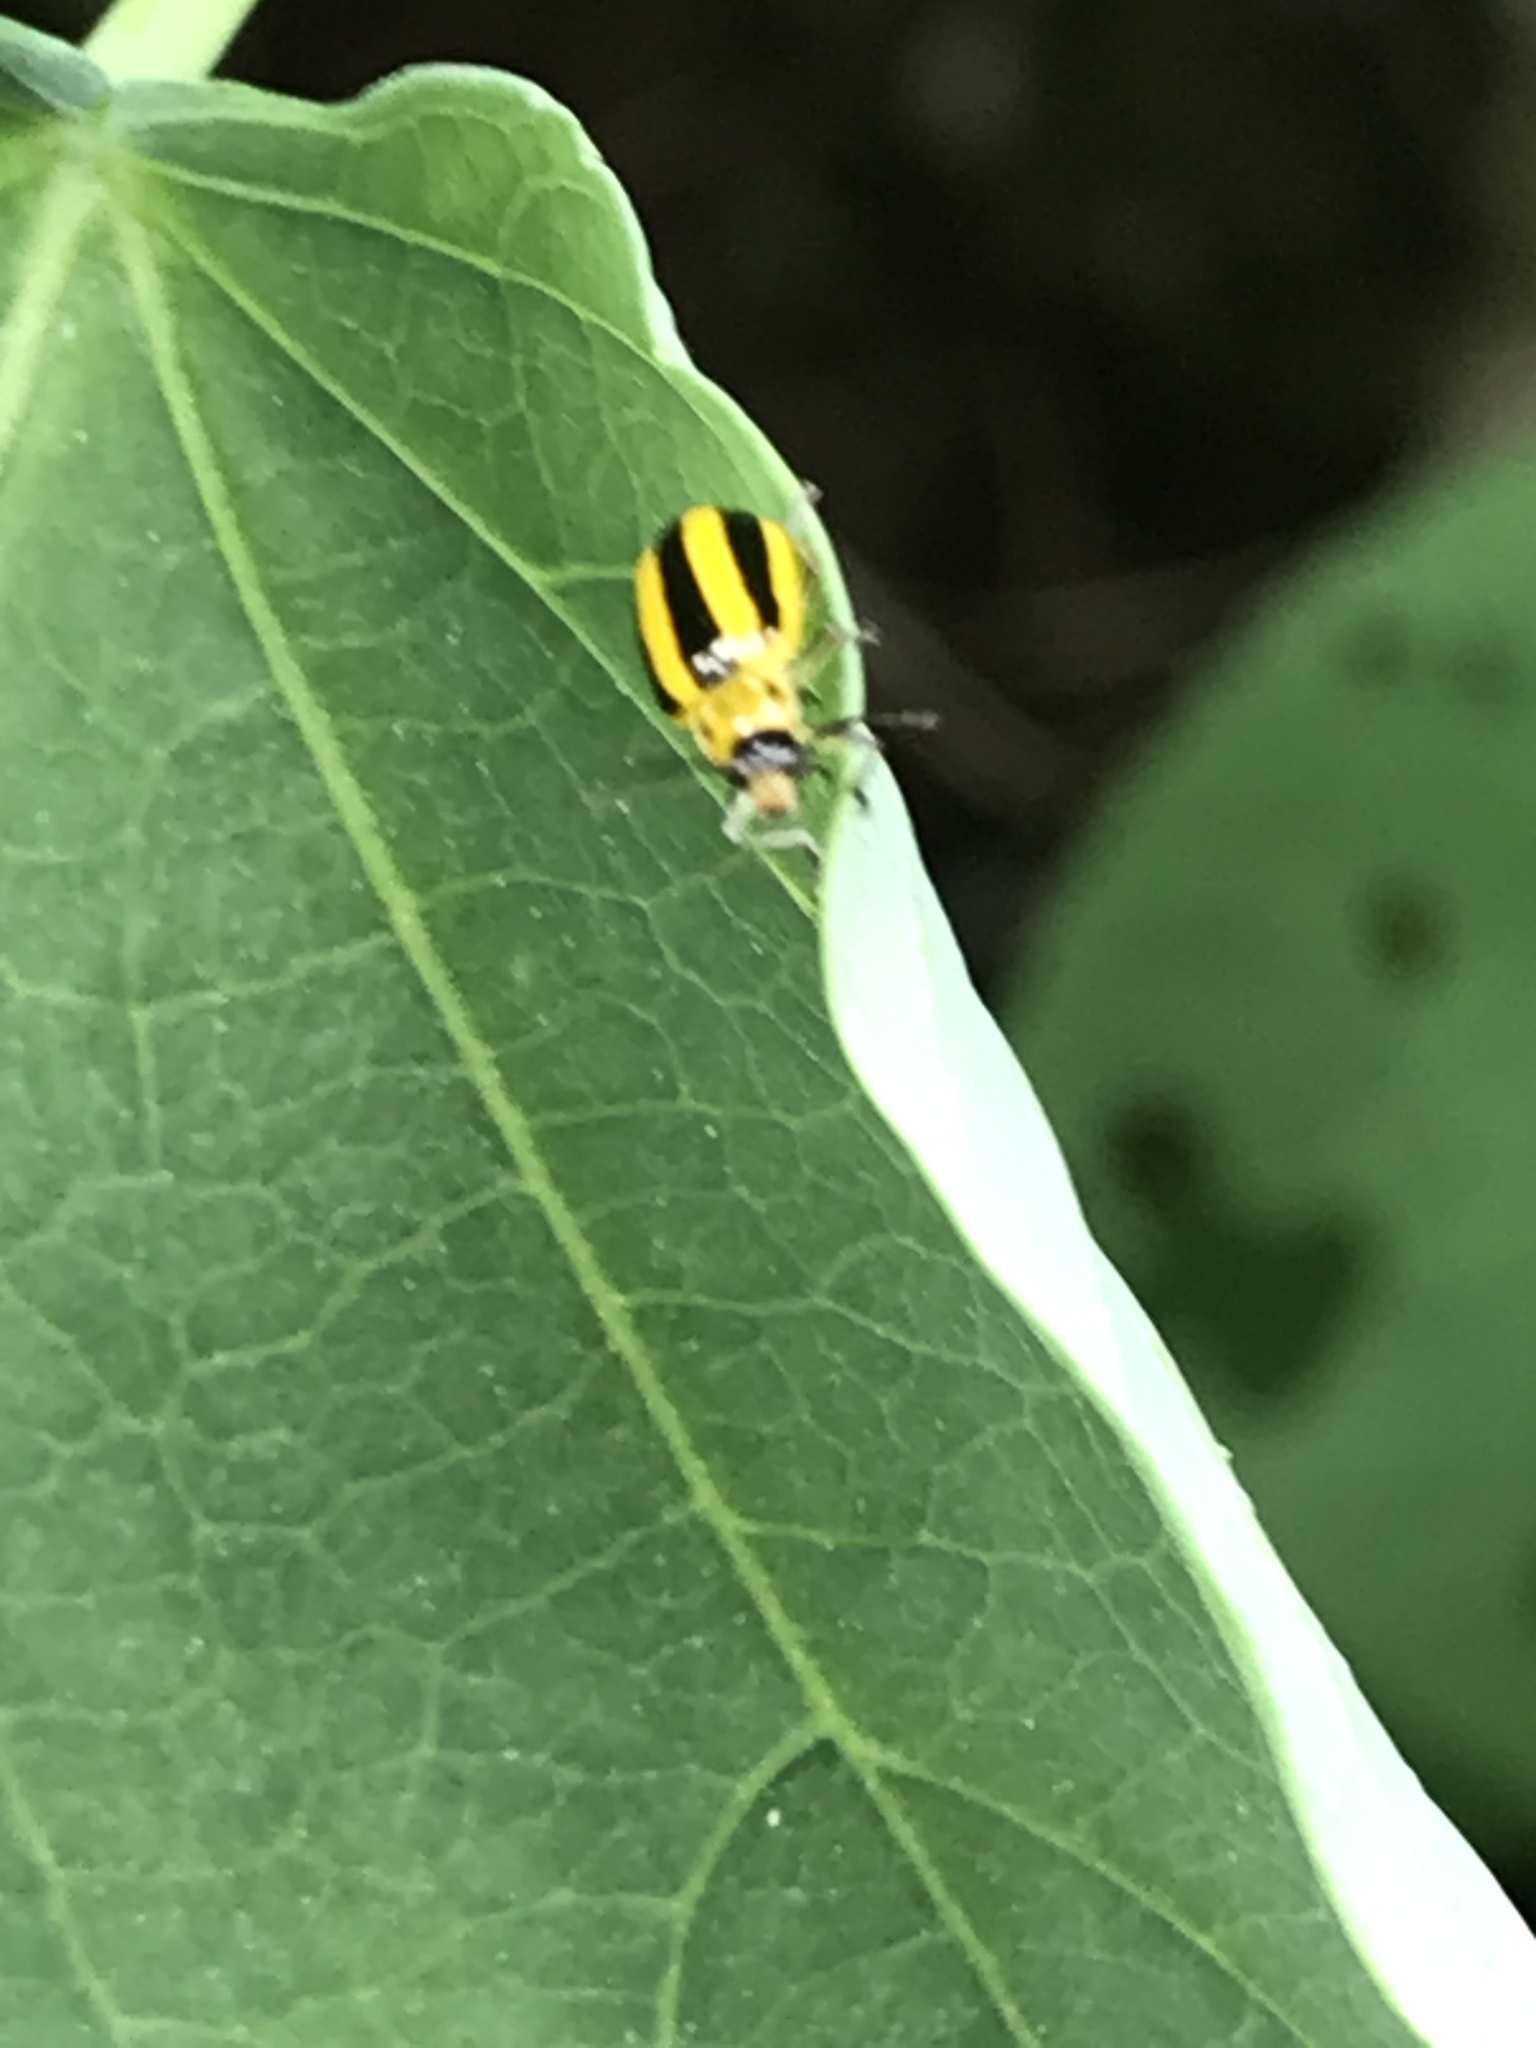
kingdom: Animalia
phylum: Arthropoda
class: Insecta
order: Coleoptera
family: Chrysomelidae
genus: Amphelasma
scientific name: Amphelasma cavum
